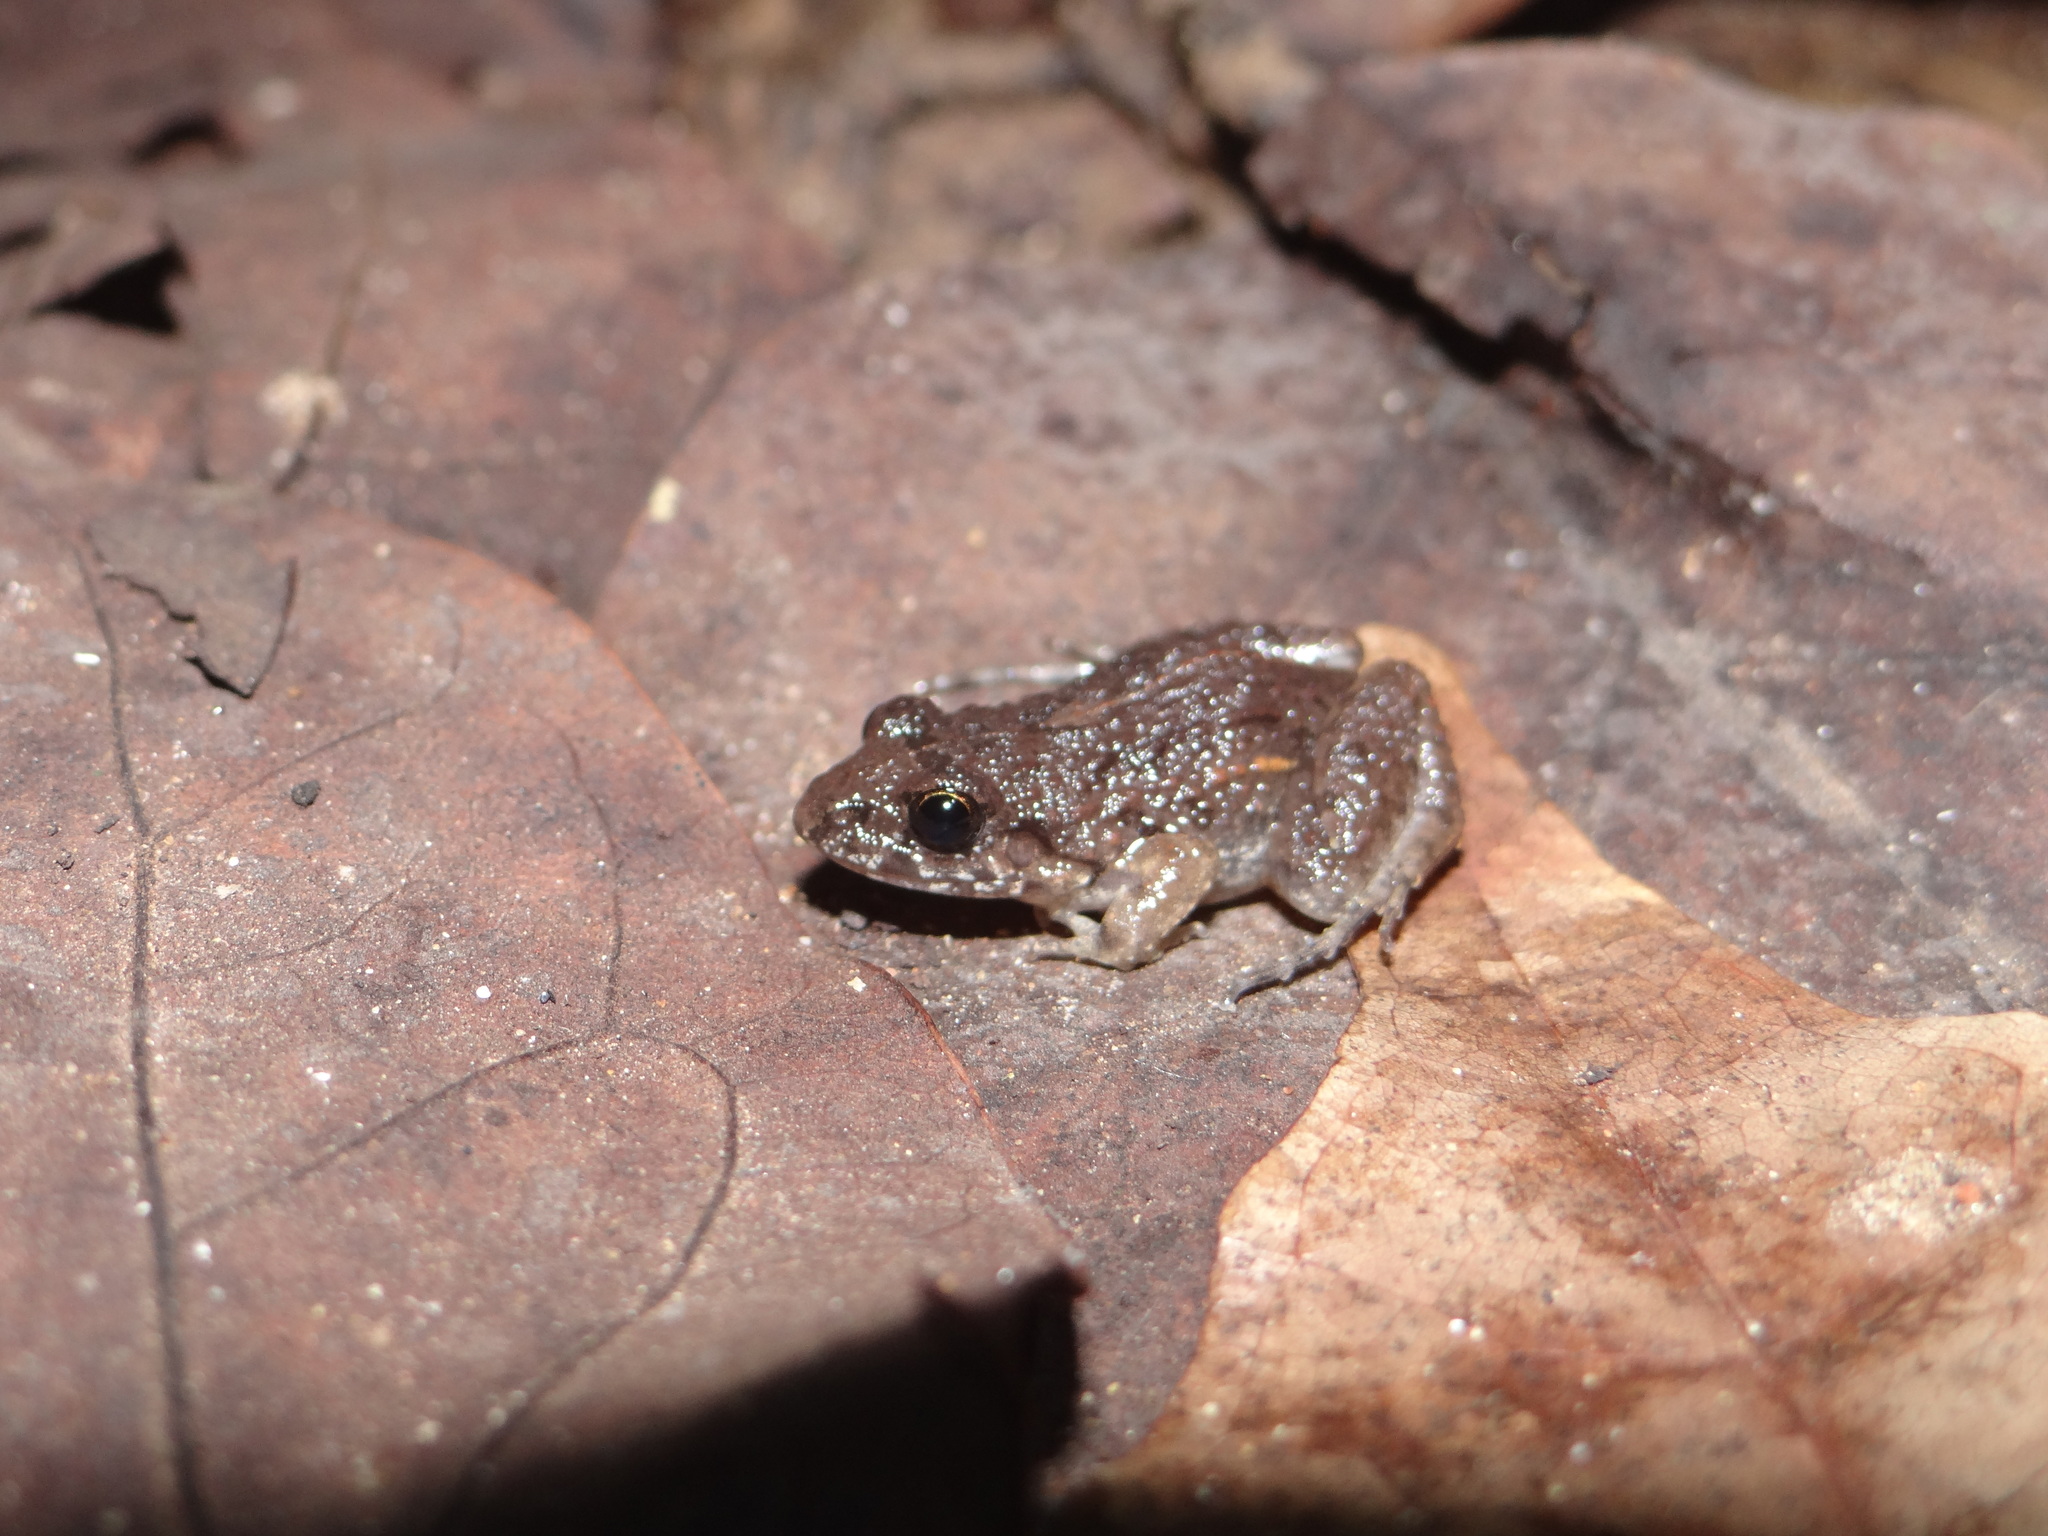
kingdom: Animalia
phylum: Chordata
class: Amphibia
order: Anura
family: Leptodactylidae
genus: Adenomera
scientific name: Adenomera chicomendesi
